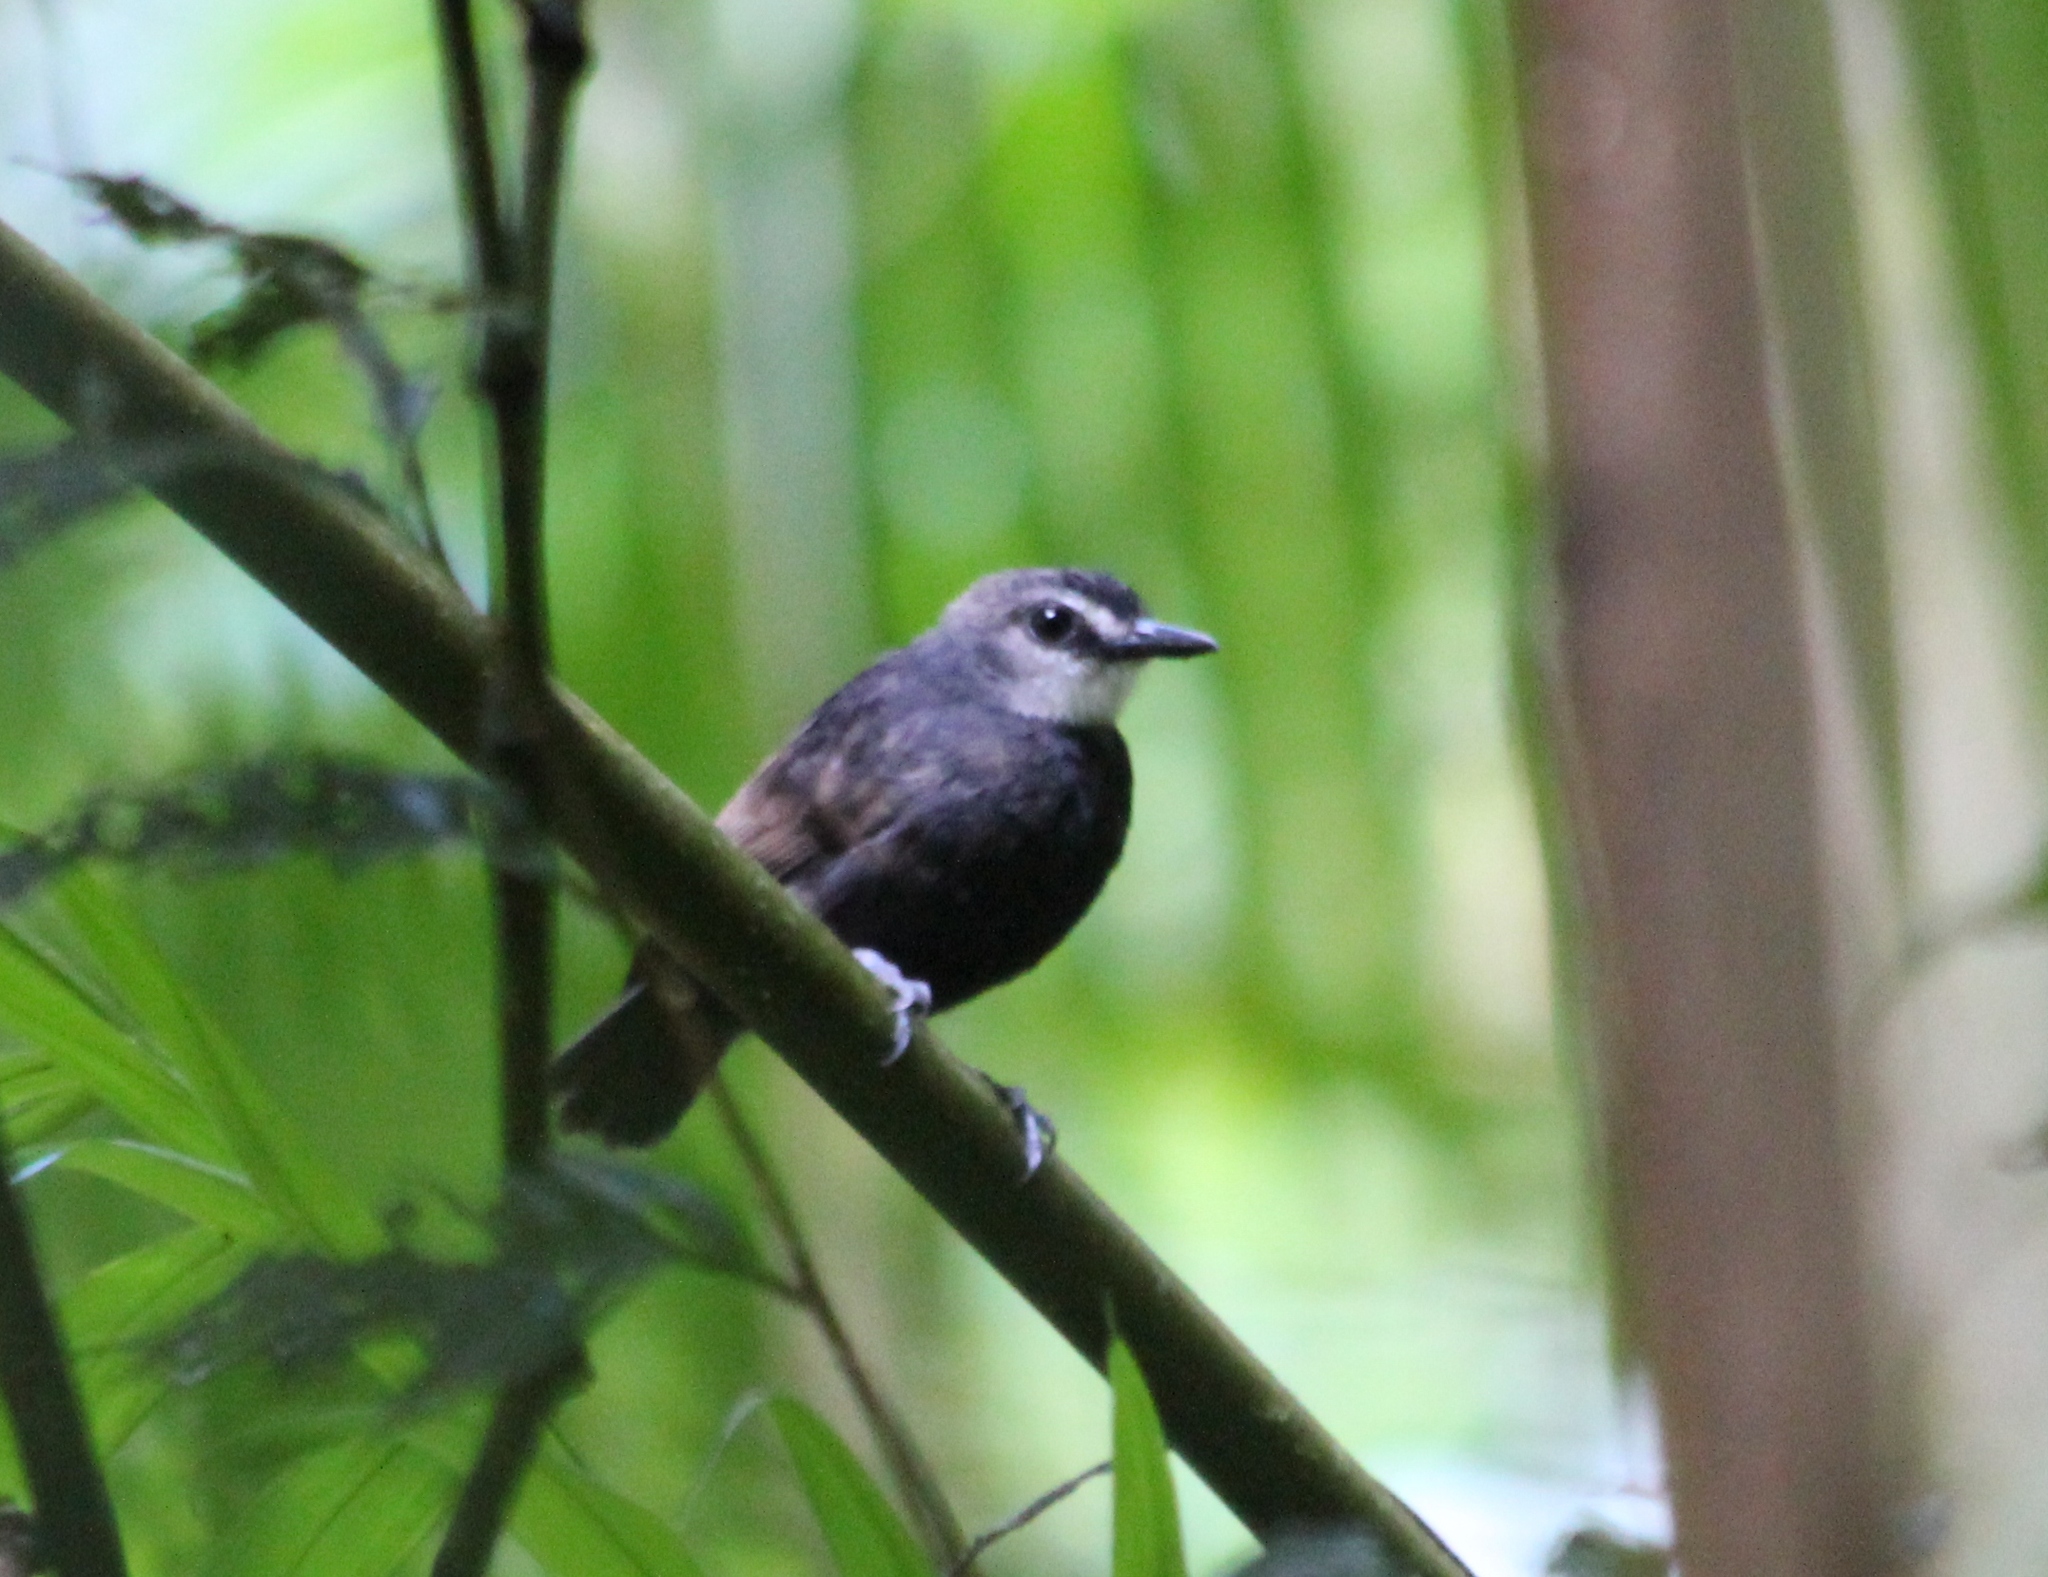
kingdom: Animalia
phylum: Chordata
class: Aves
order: Passeriformes
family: Thamnophilidae
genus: Gymnopithys
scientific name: Gymnopithys lunulatus
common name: Lunulated antbird
